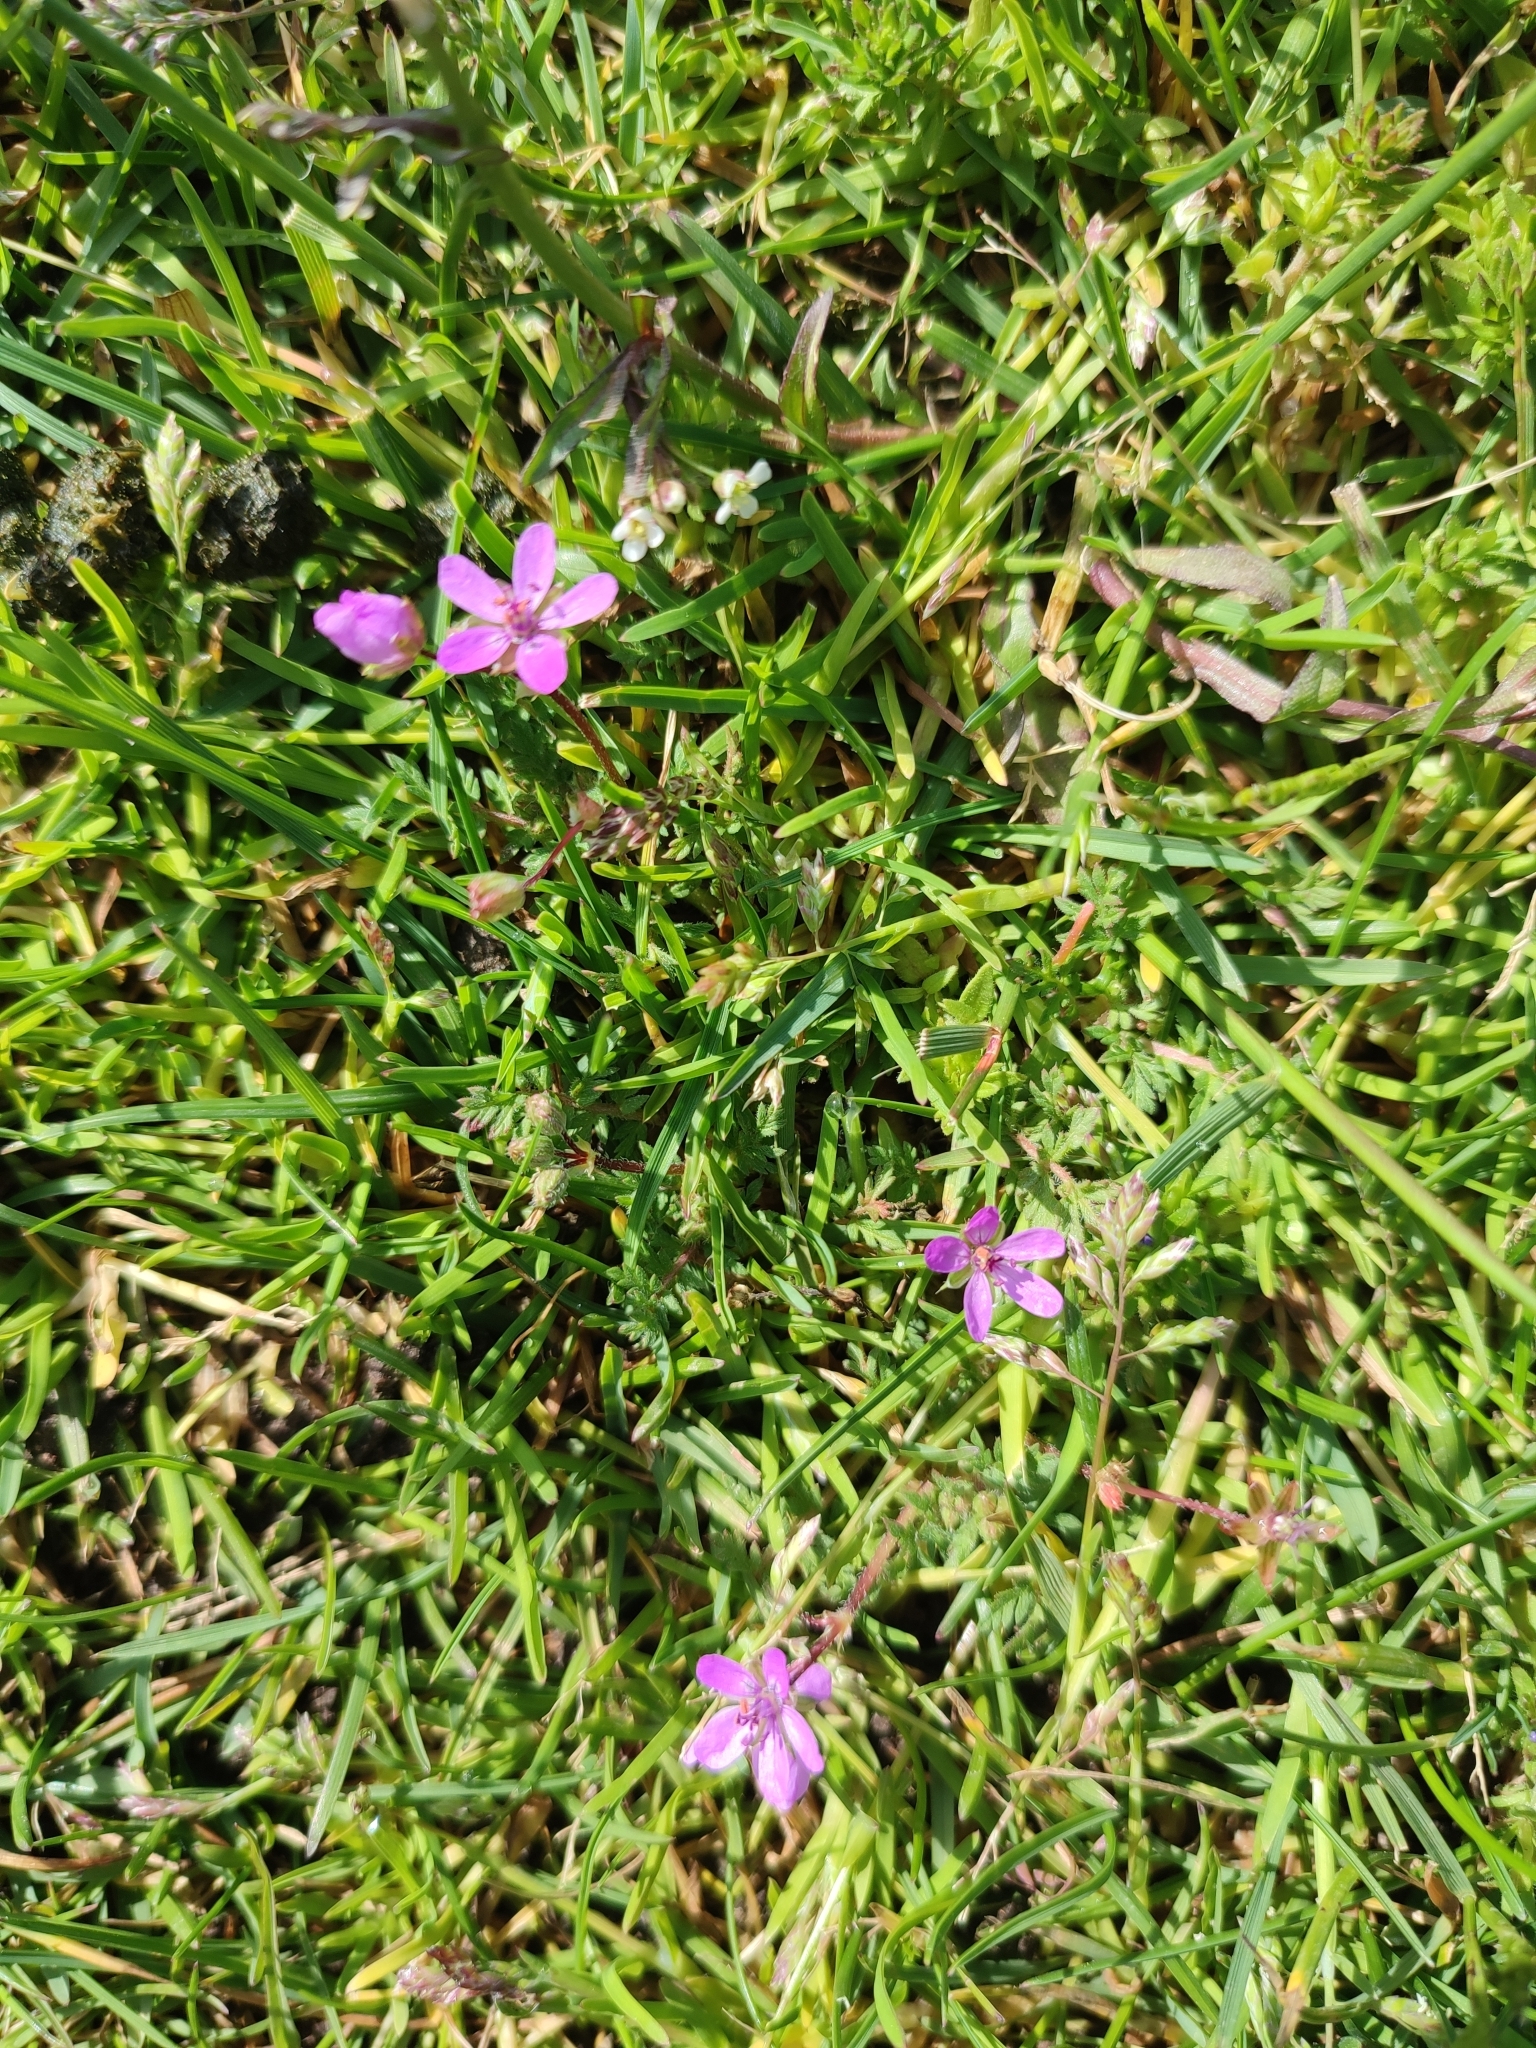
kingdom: Plantae
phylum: Tracheophyta
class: Magnoliopsida
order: Geraniales
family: Geraniaceae
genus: Erodium
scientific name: Erodium cicutarium
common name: Common stork's-bill
